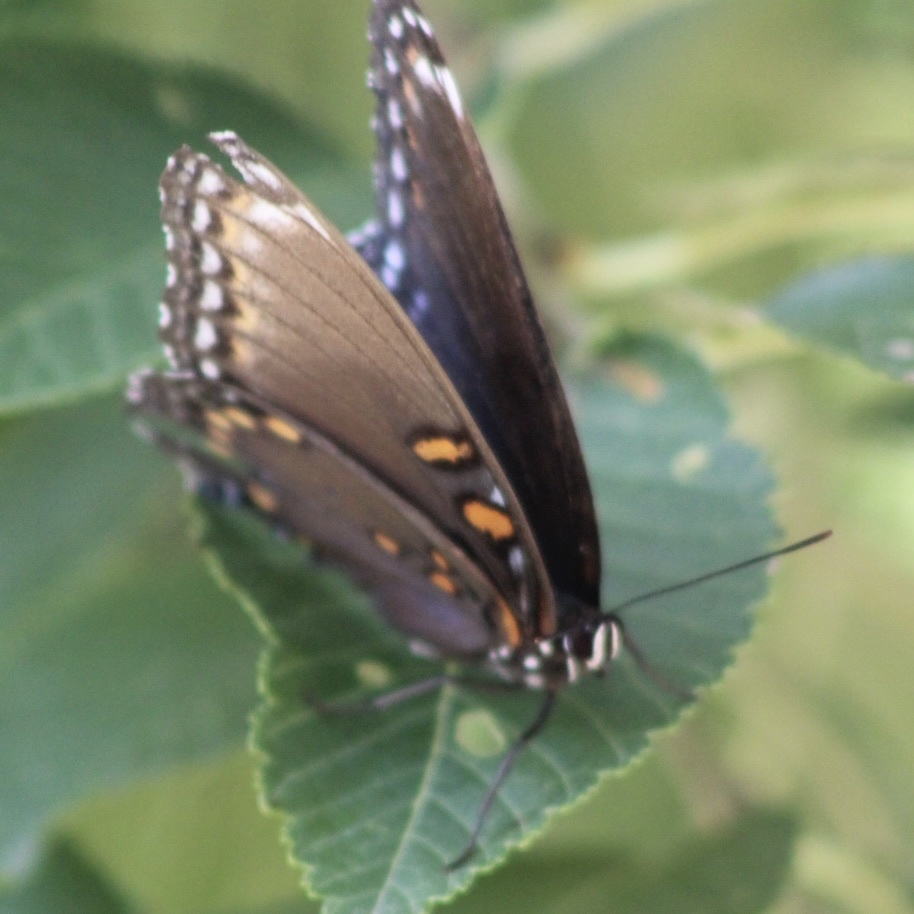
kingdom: Animalia
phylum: Arthropoda
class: Insecta
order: Lepidoptera
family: Nymphalidae
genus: Limenitis
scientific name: Limenitis astyanax
